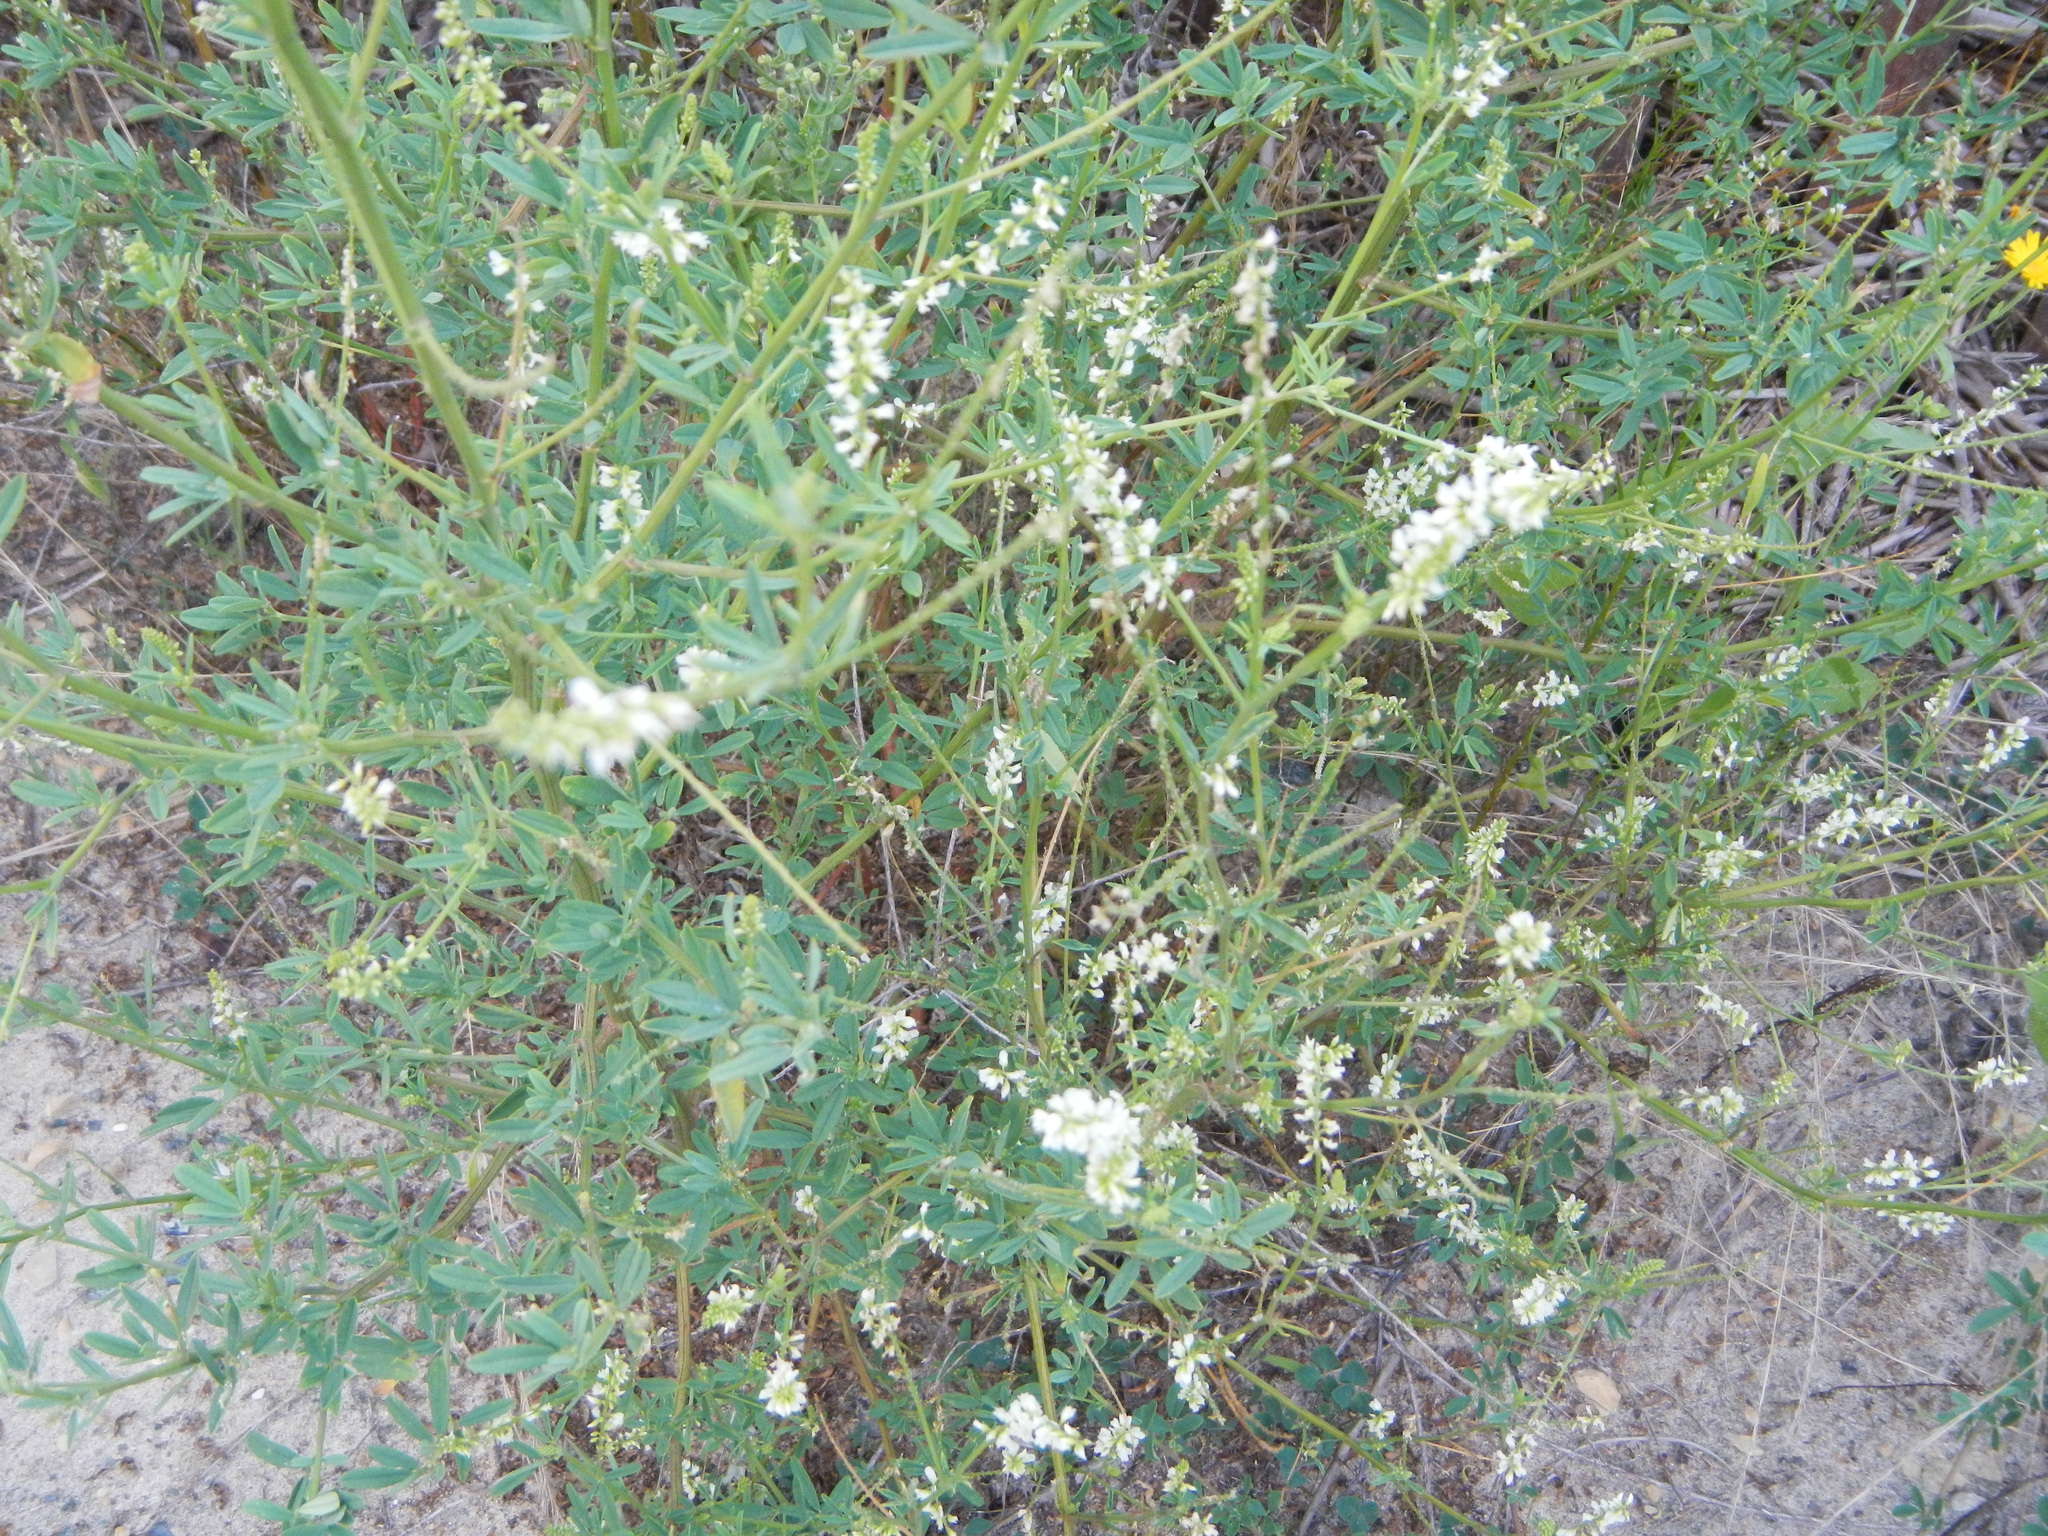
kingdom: Plantae
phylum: Tracheophyta
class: Magnoliopsida
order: Fabales
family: Fabaceae
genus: Melilotus
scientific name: Melilotus albus
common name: White melilot
